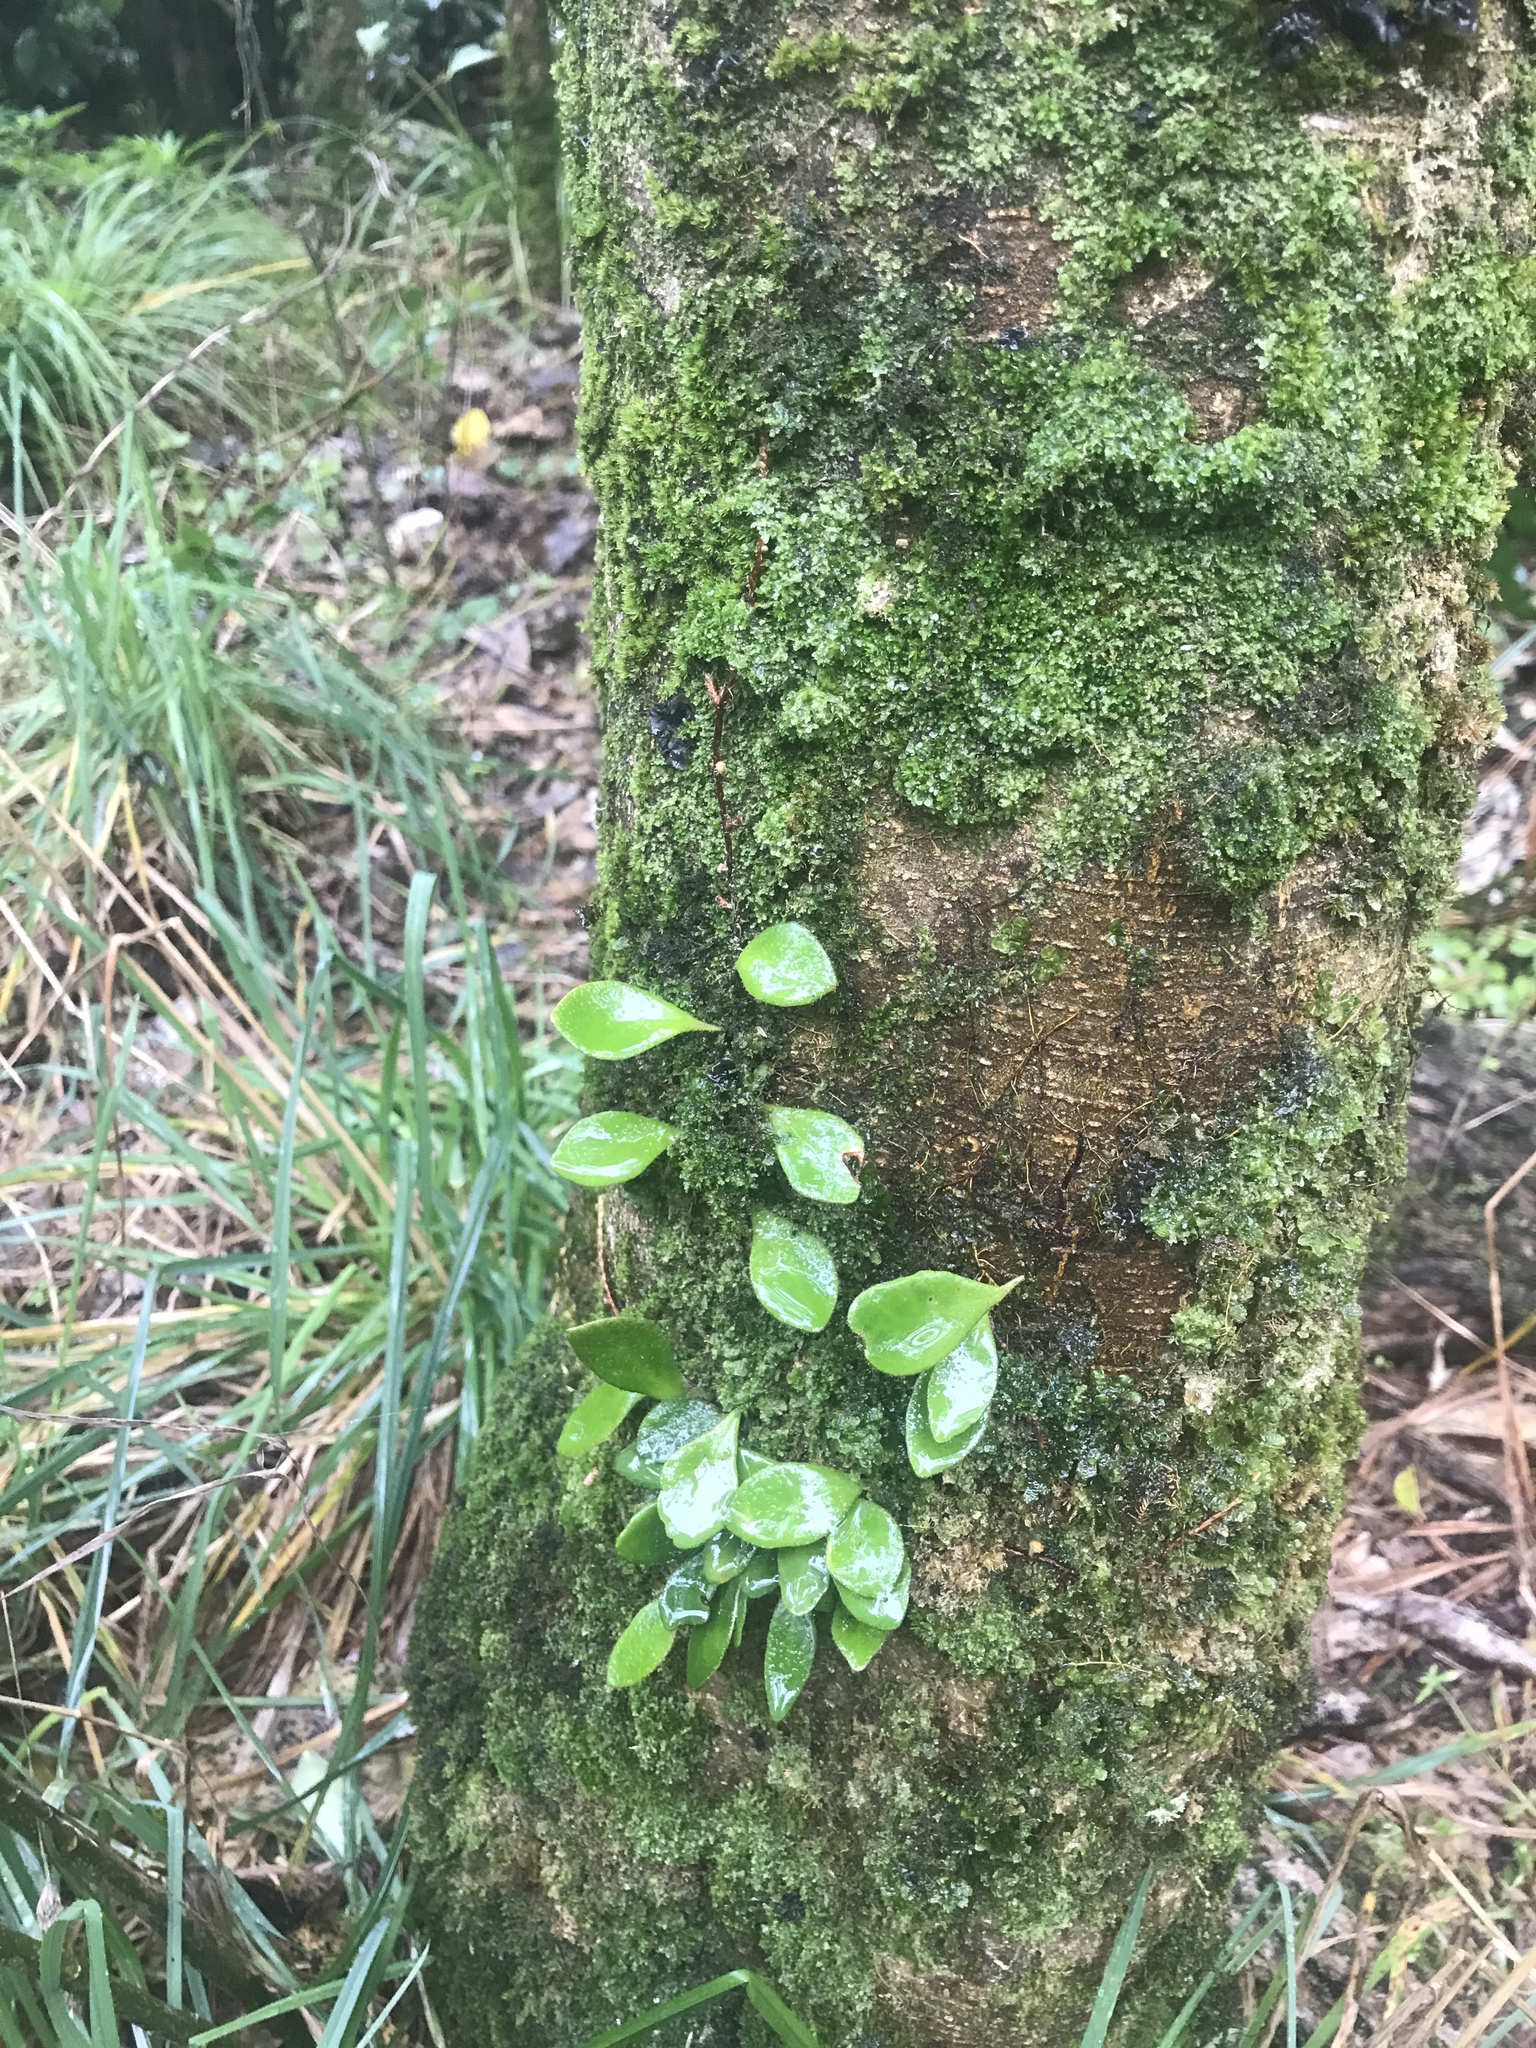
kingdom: Plantae
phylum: Tracheophyta
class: Polypodiopsida
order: Polypodiales
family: Polypodiaceae
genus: Pyrrosia
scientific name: Pyrrosia eleagnifolia
